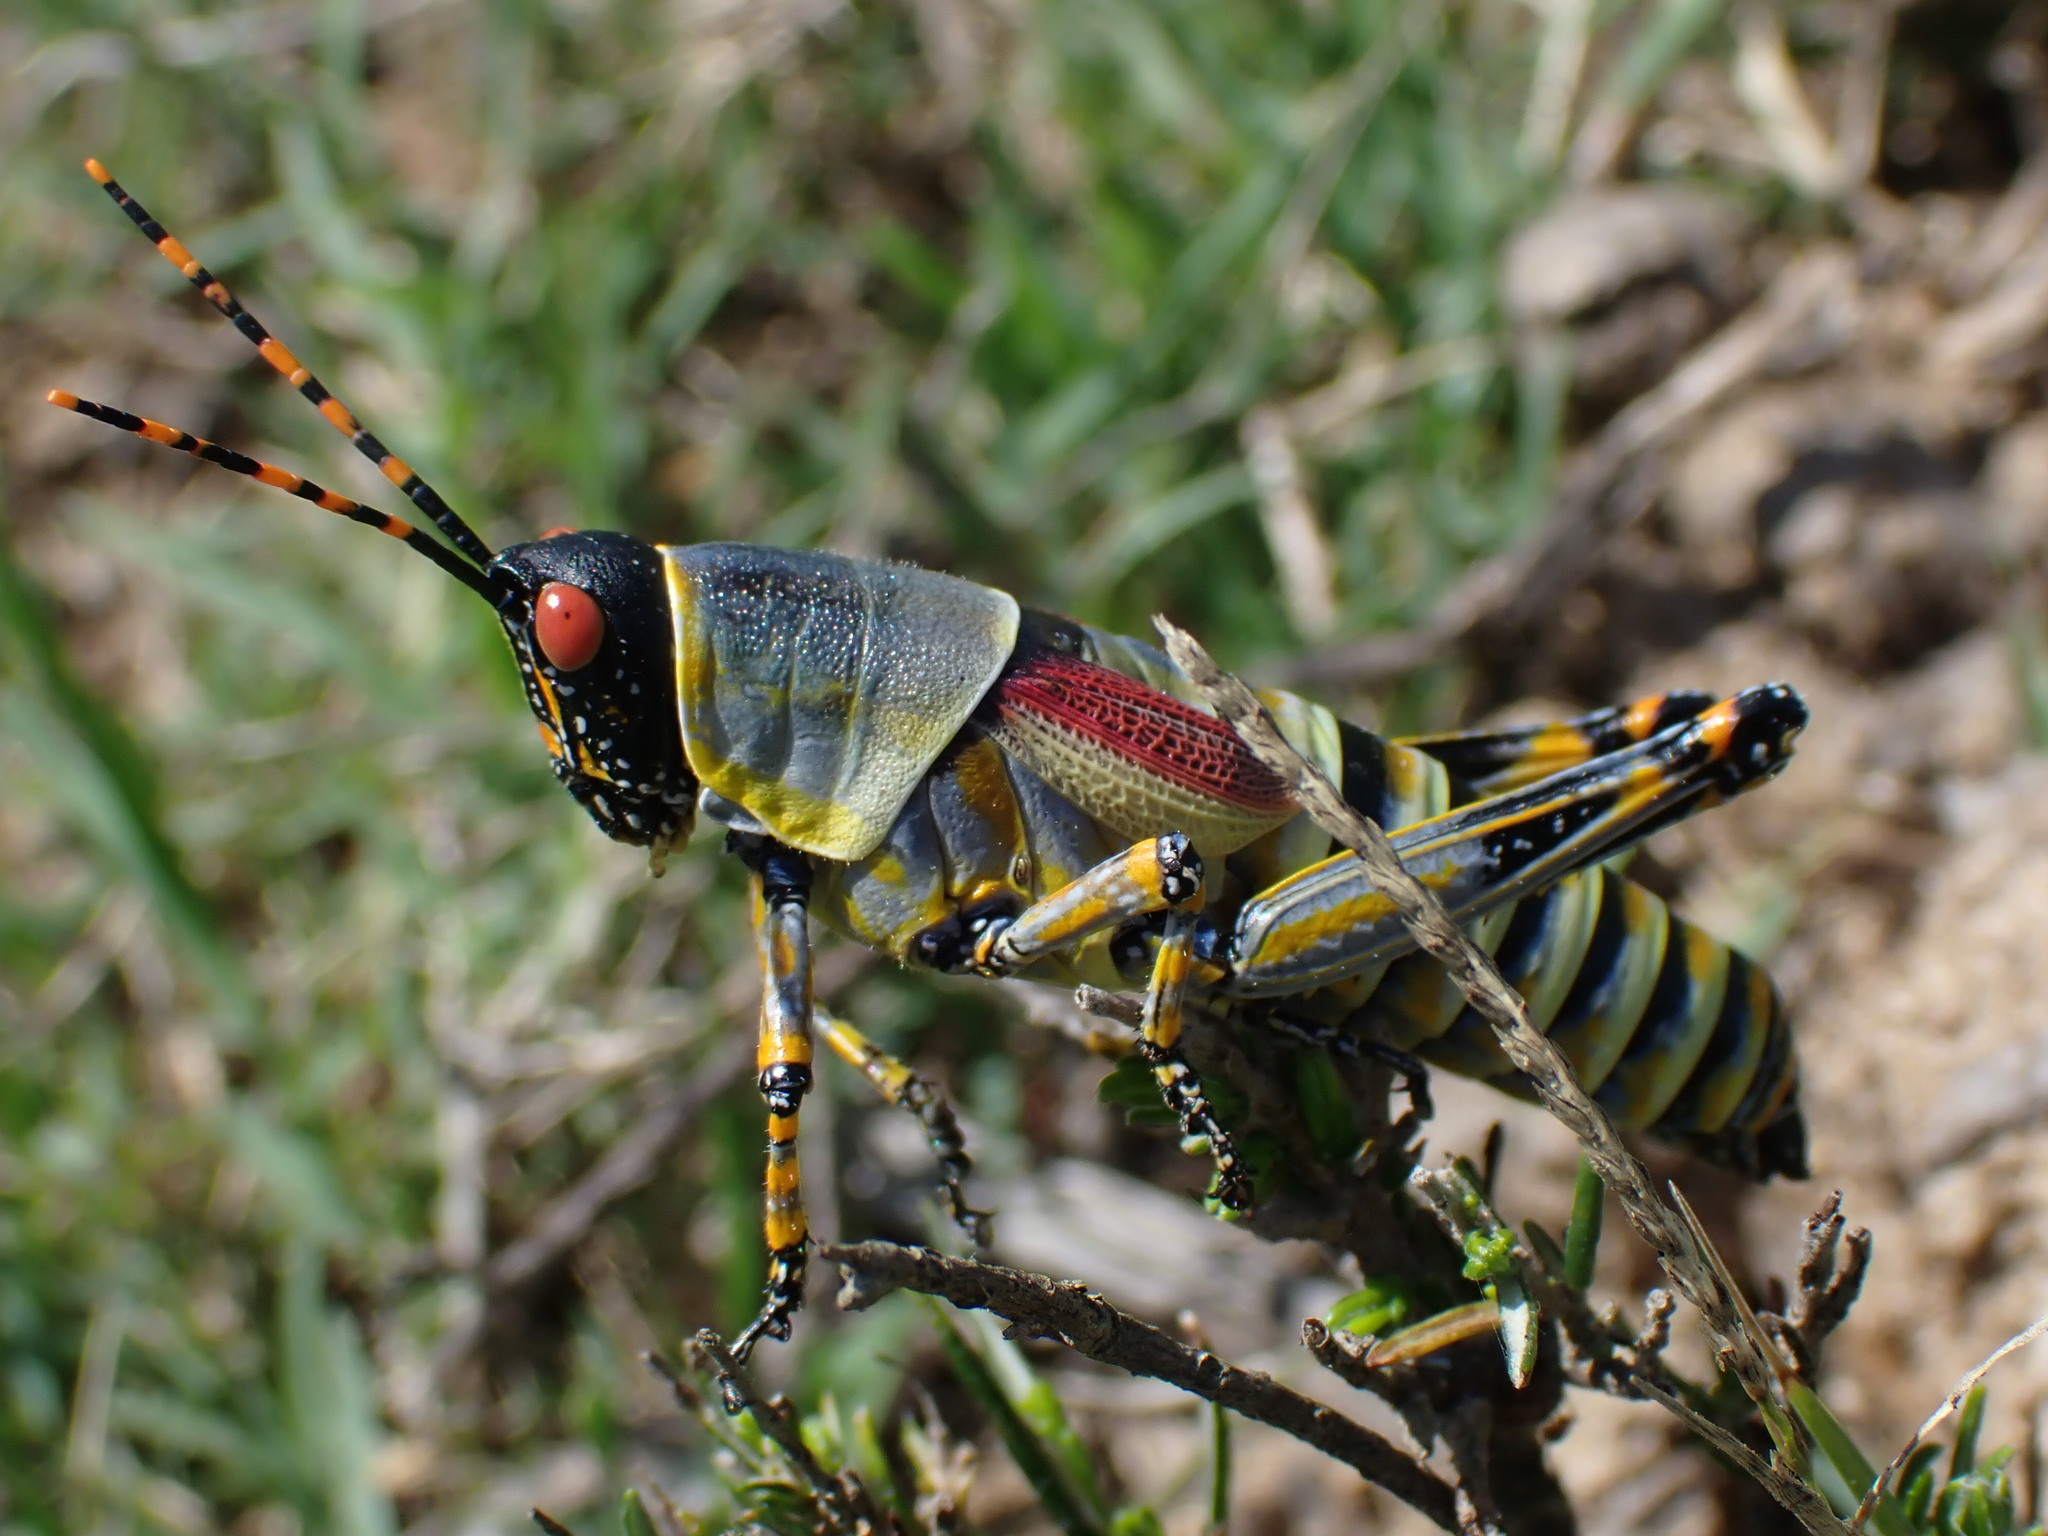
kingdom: Animalia
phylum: Arthropoda
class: Insecta
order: Orthoptera
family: Pyrgomorphidae
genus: Zonocerus
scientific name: Zonocerus elegans
